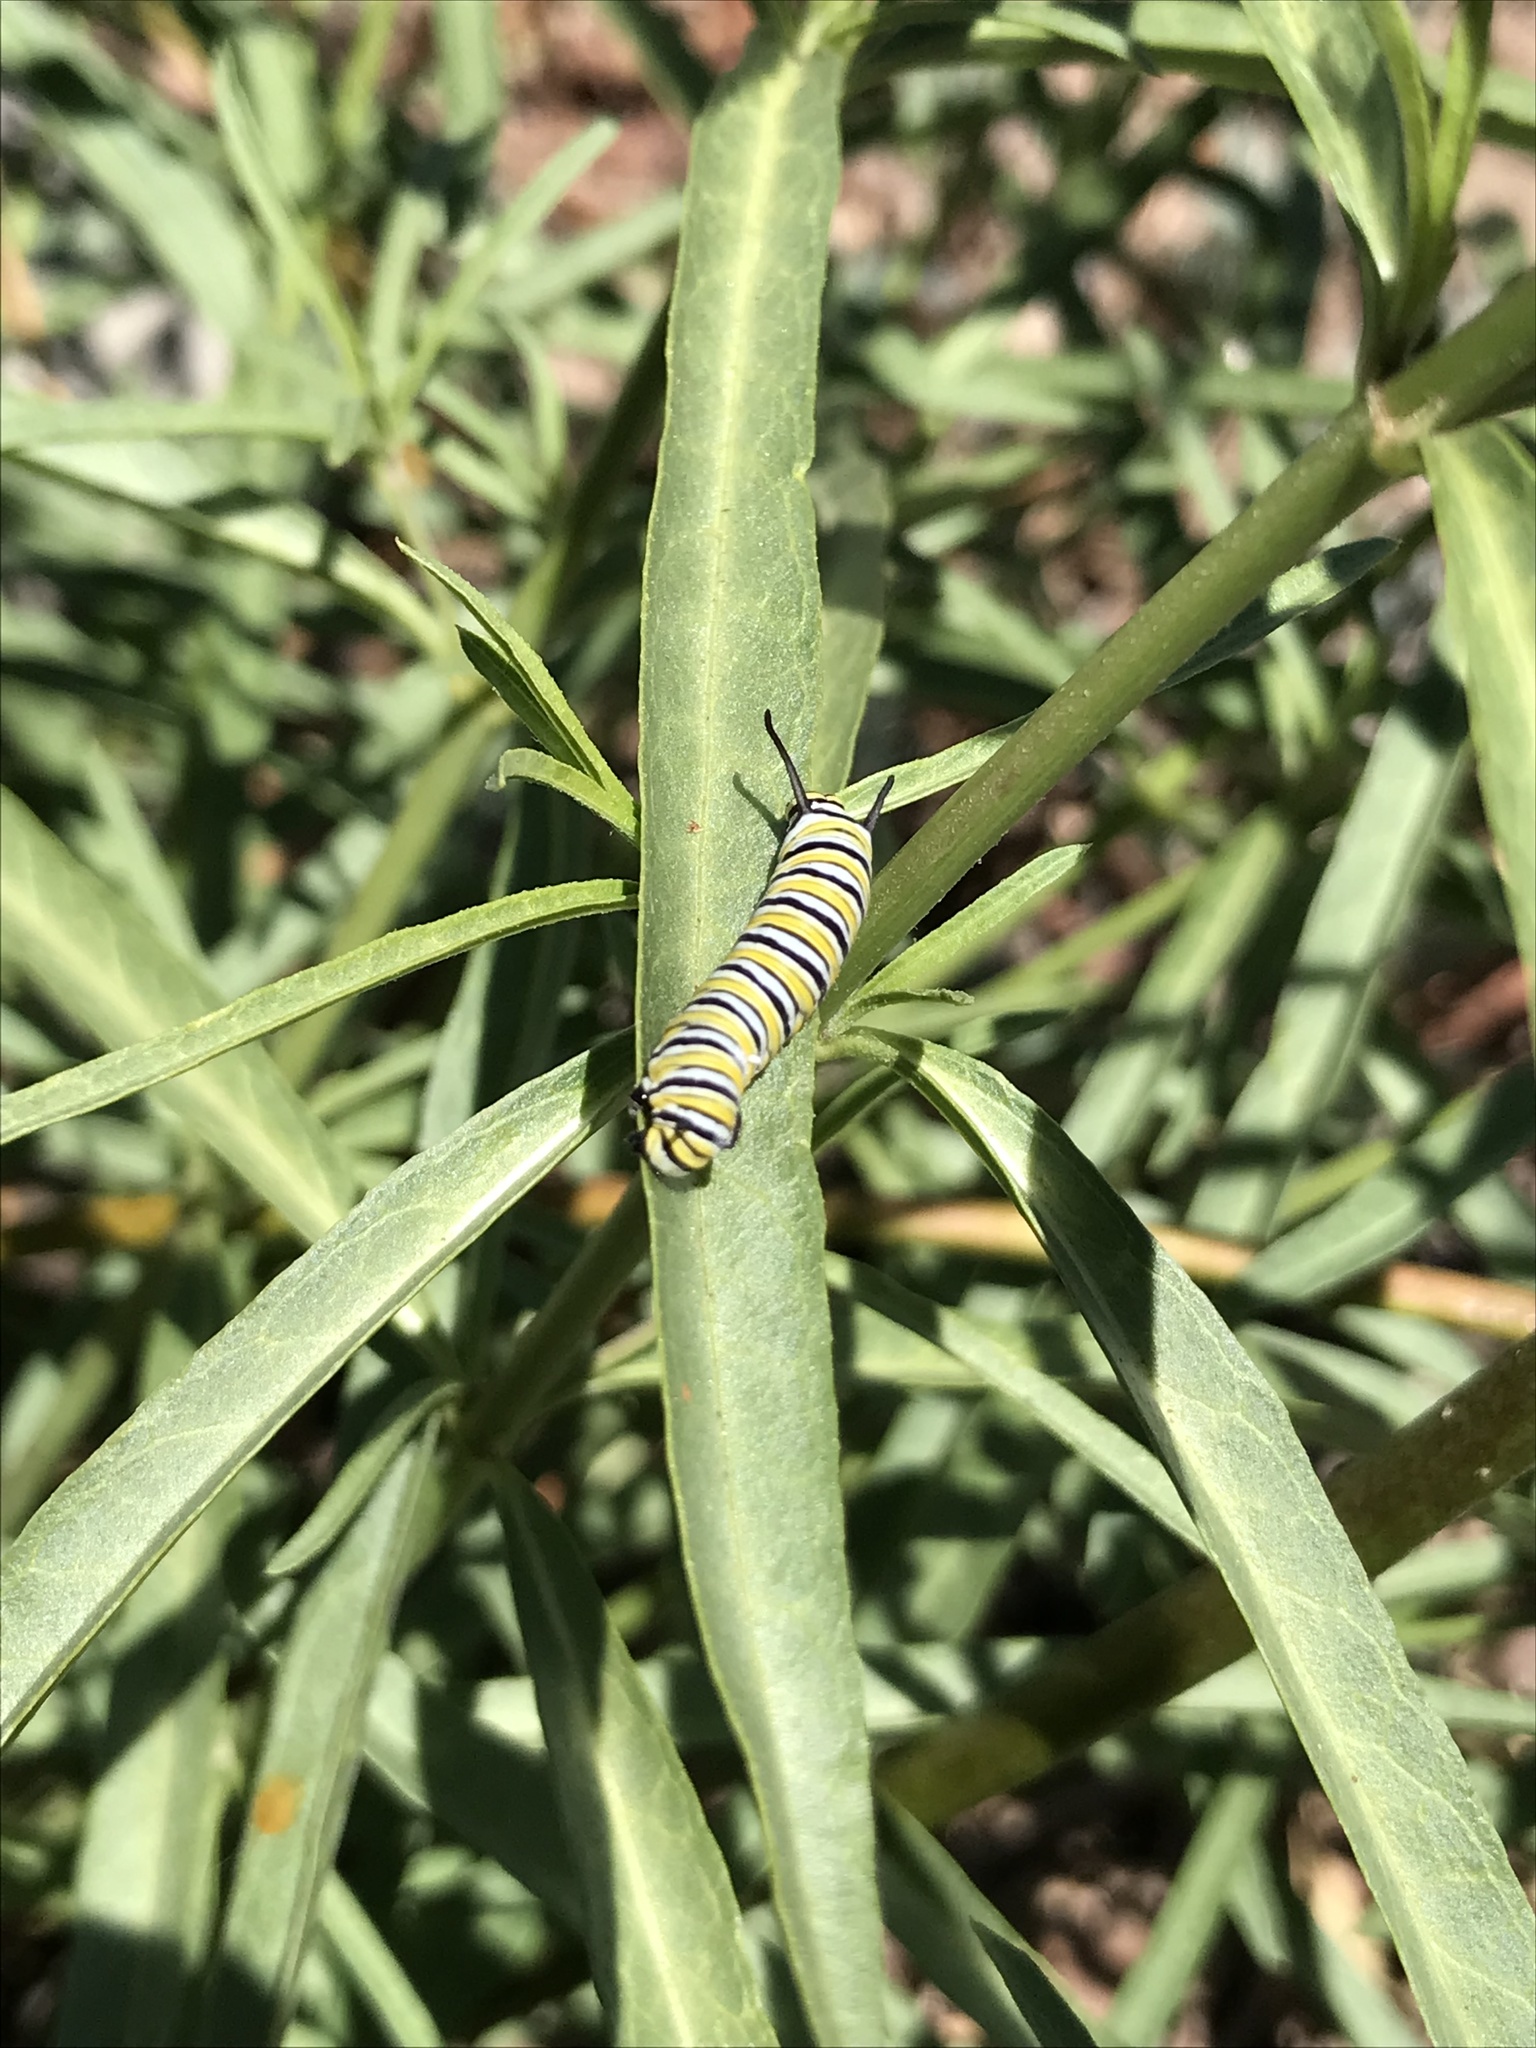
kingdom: Animalia
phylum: Arthropoda
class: Insecta
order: Lepidoptera
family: Nymphalidae
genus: Danaus
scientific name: Danaus plexippus
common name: Monarch
